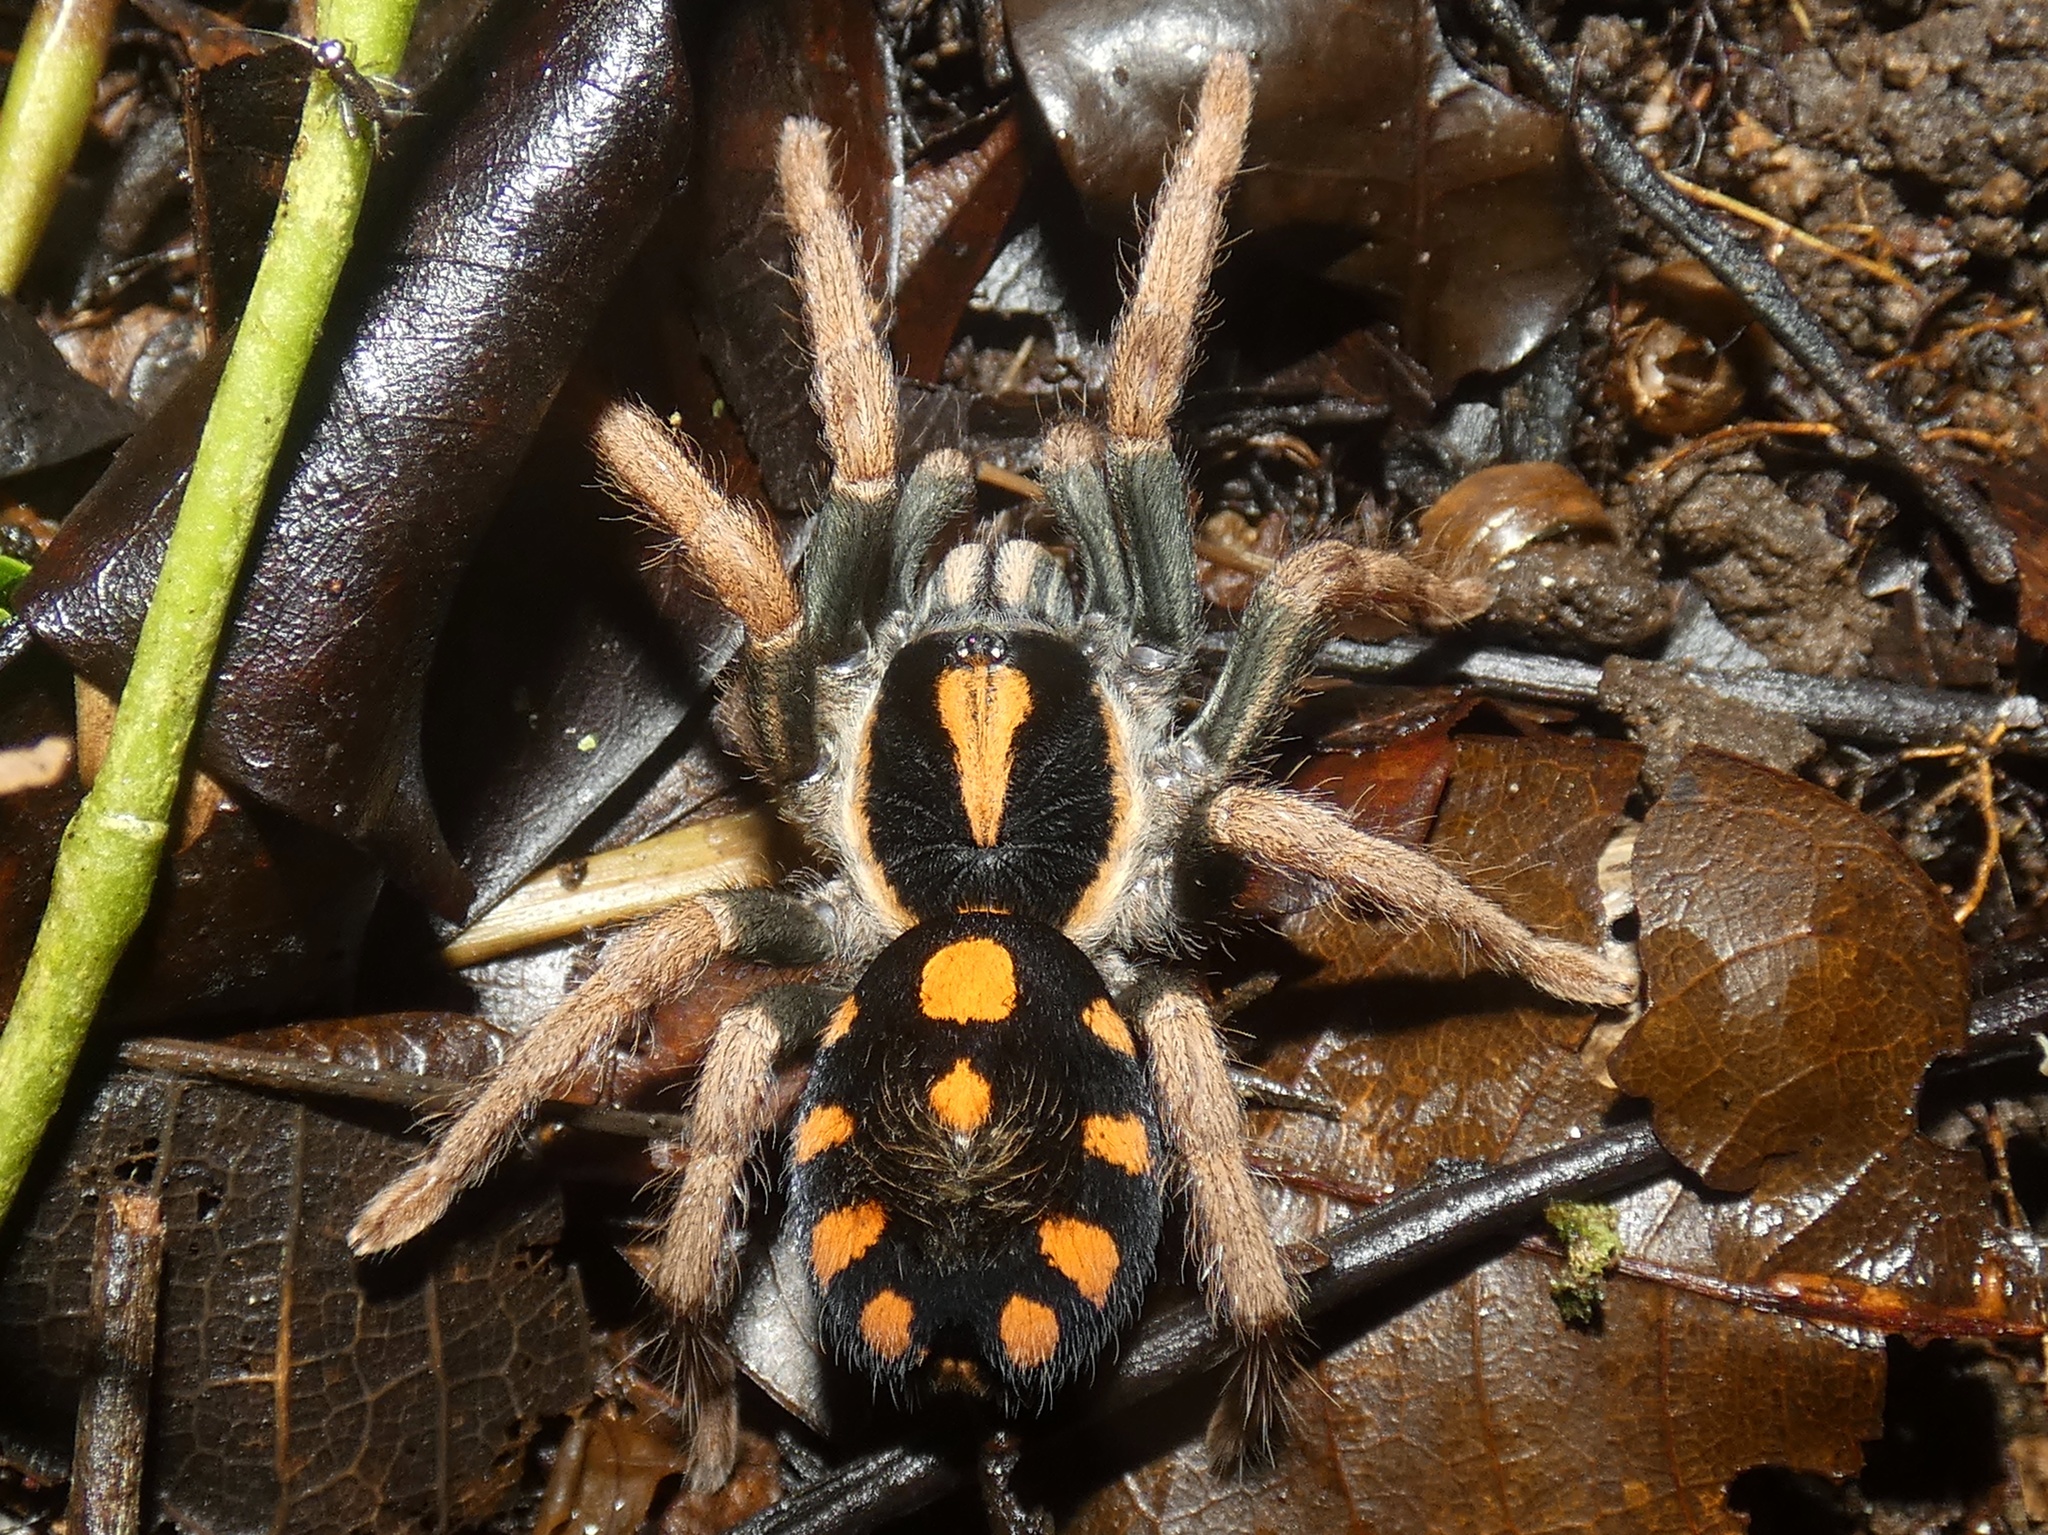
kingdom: Animalia
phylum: Arthropoda
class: Arachnida
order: Araneae
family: Theraphosidae
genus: Hapalopus
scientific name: Hapalopus coloratus
